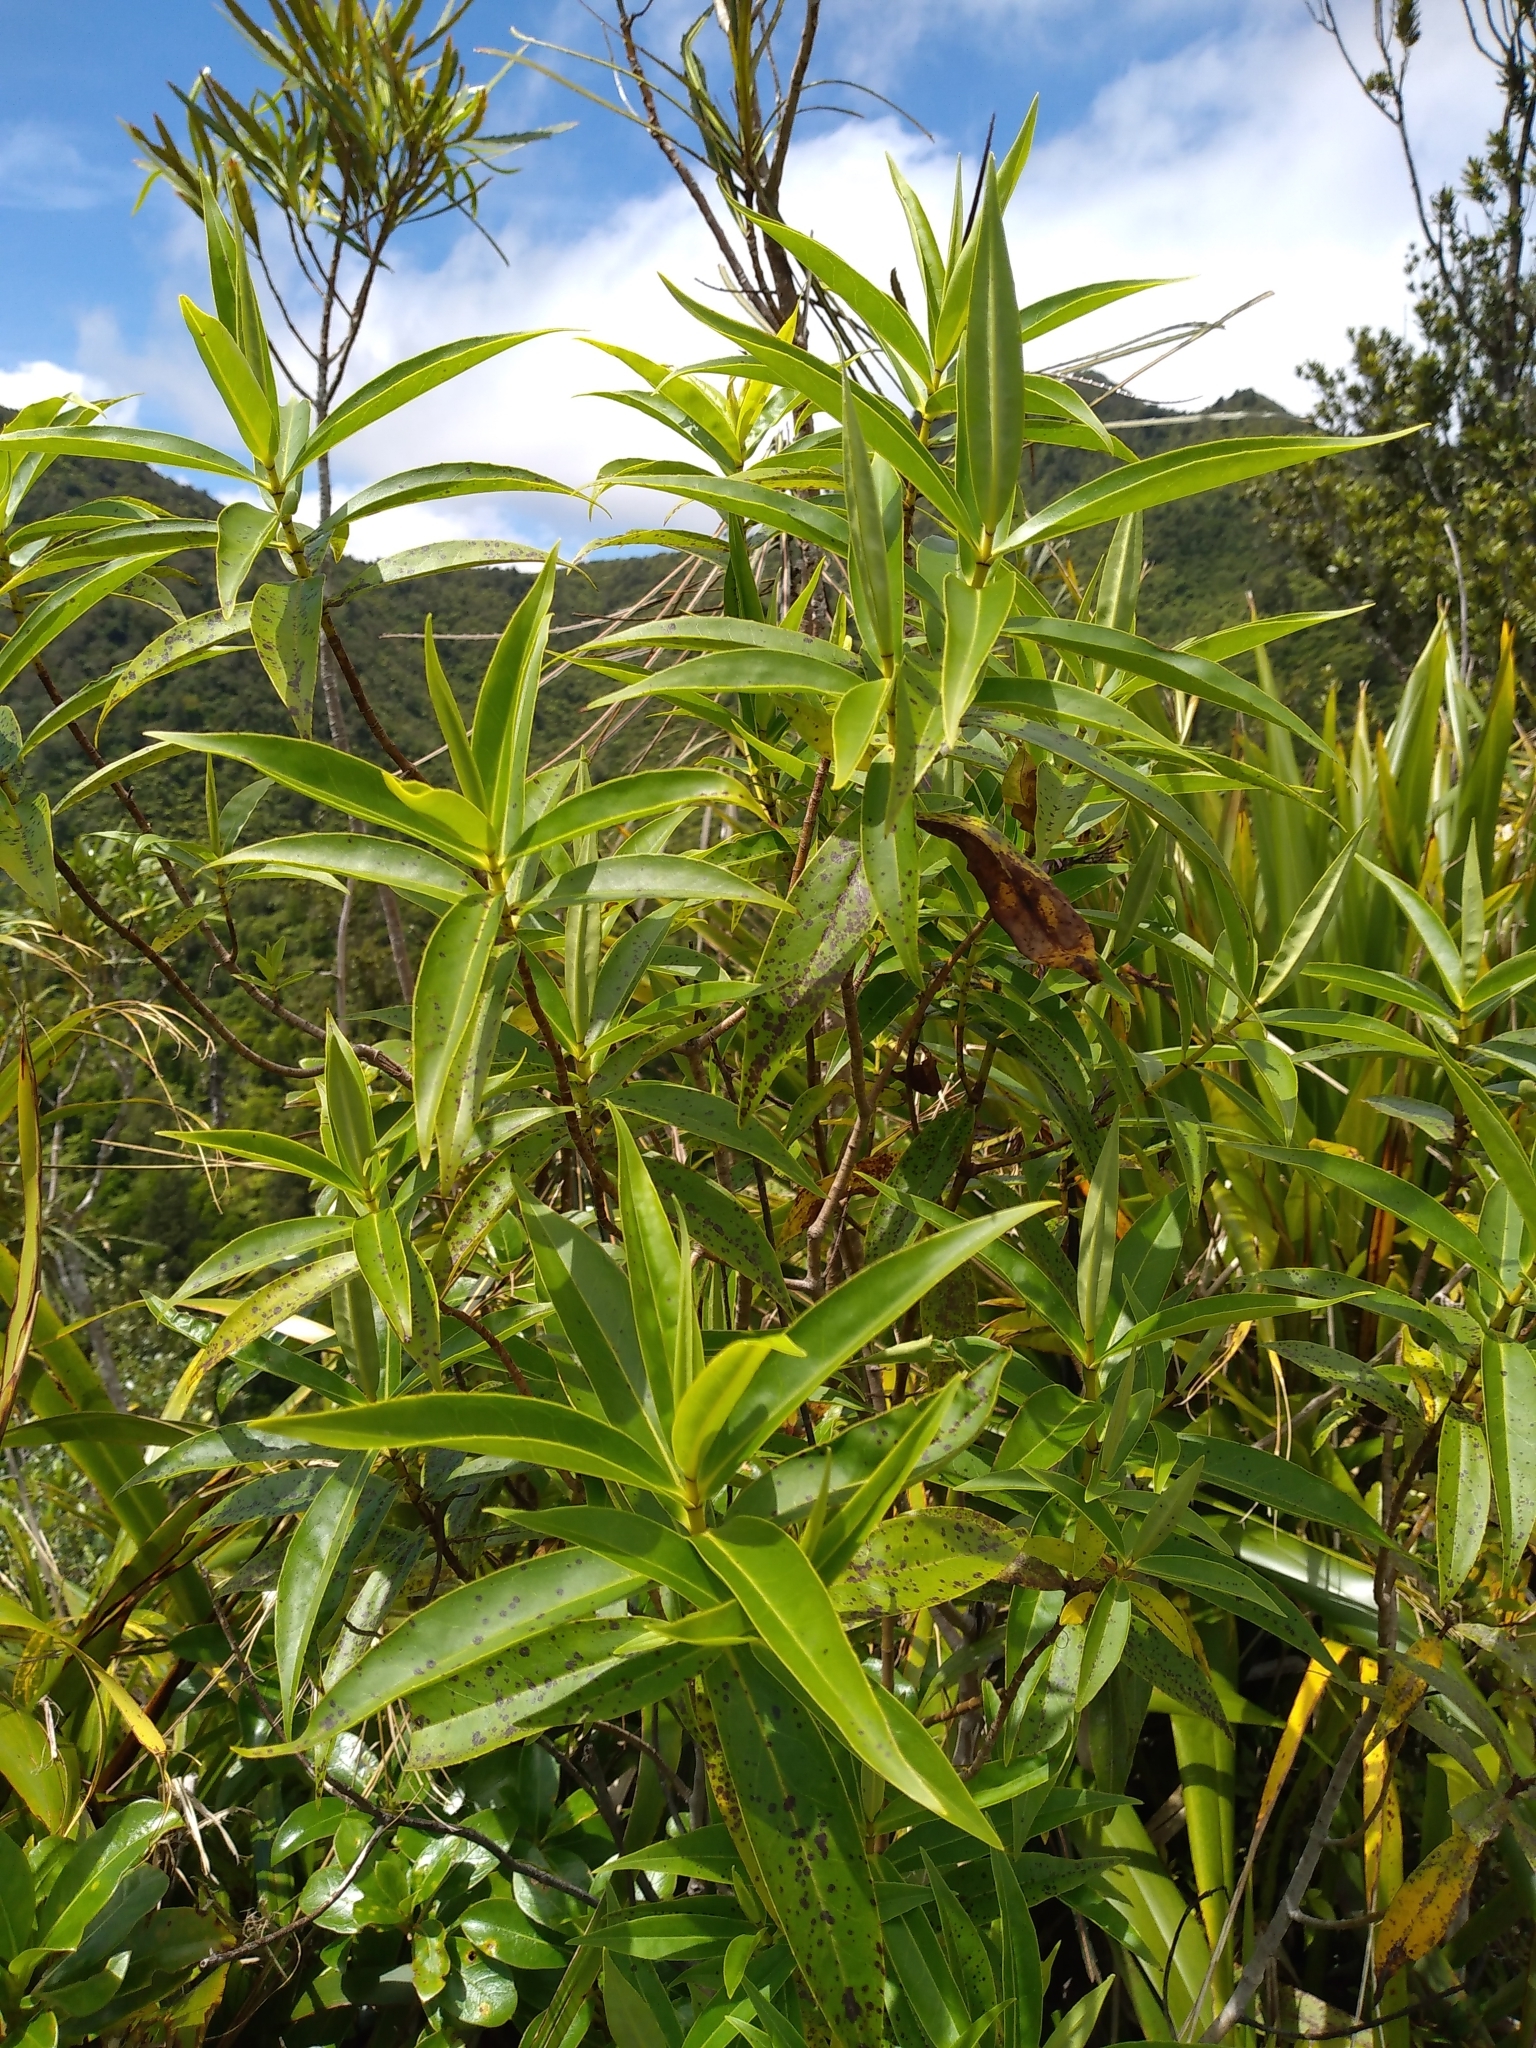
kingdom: Plantae
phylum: Tracheophyta
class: Magnoliopsida
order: Lamiales
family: Plantaginaceae
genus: Veronica
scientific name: Veronica stricta
